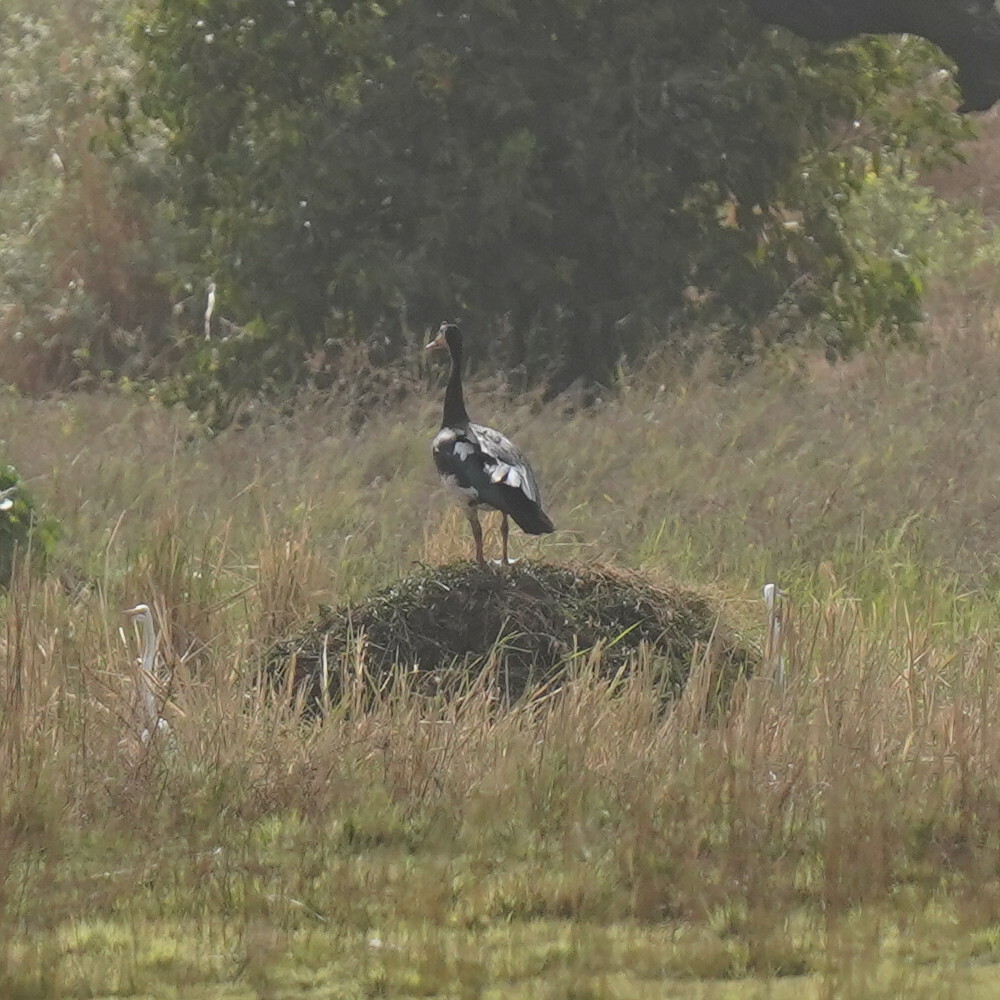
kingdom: Animalia
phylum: Chordata
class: Aves
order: Anseriformes
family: Anatidae
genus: Plectropterus
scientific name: Plectropterus gambensis
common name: Spur-winged goose
